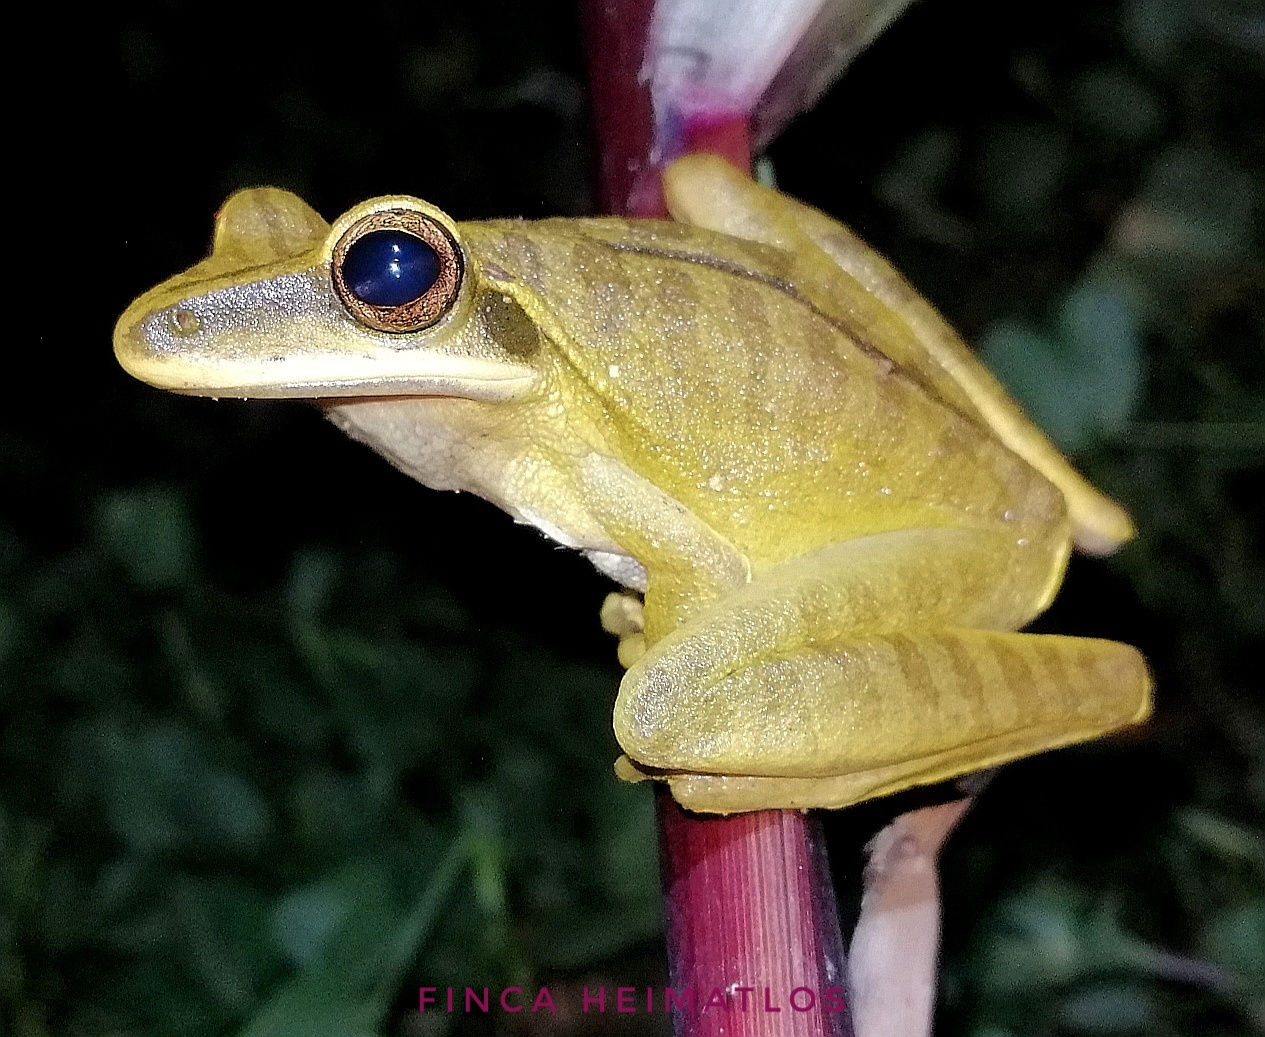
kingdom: Animalia
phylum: Chordata
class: Amphibia
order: Anura
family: Hylidae
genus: Boana
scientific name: Boana lanciformis
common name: Rana lanceolada commún
